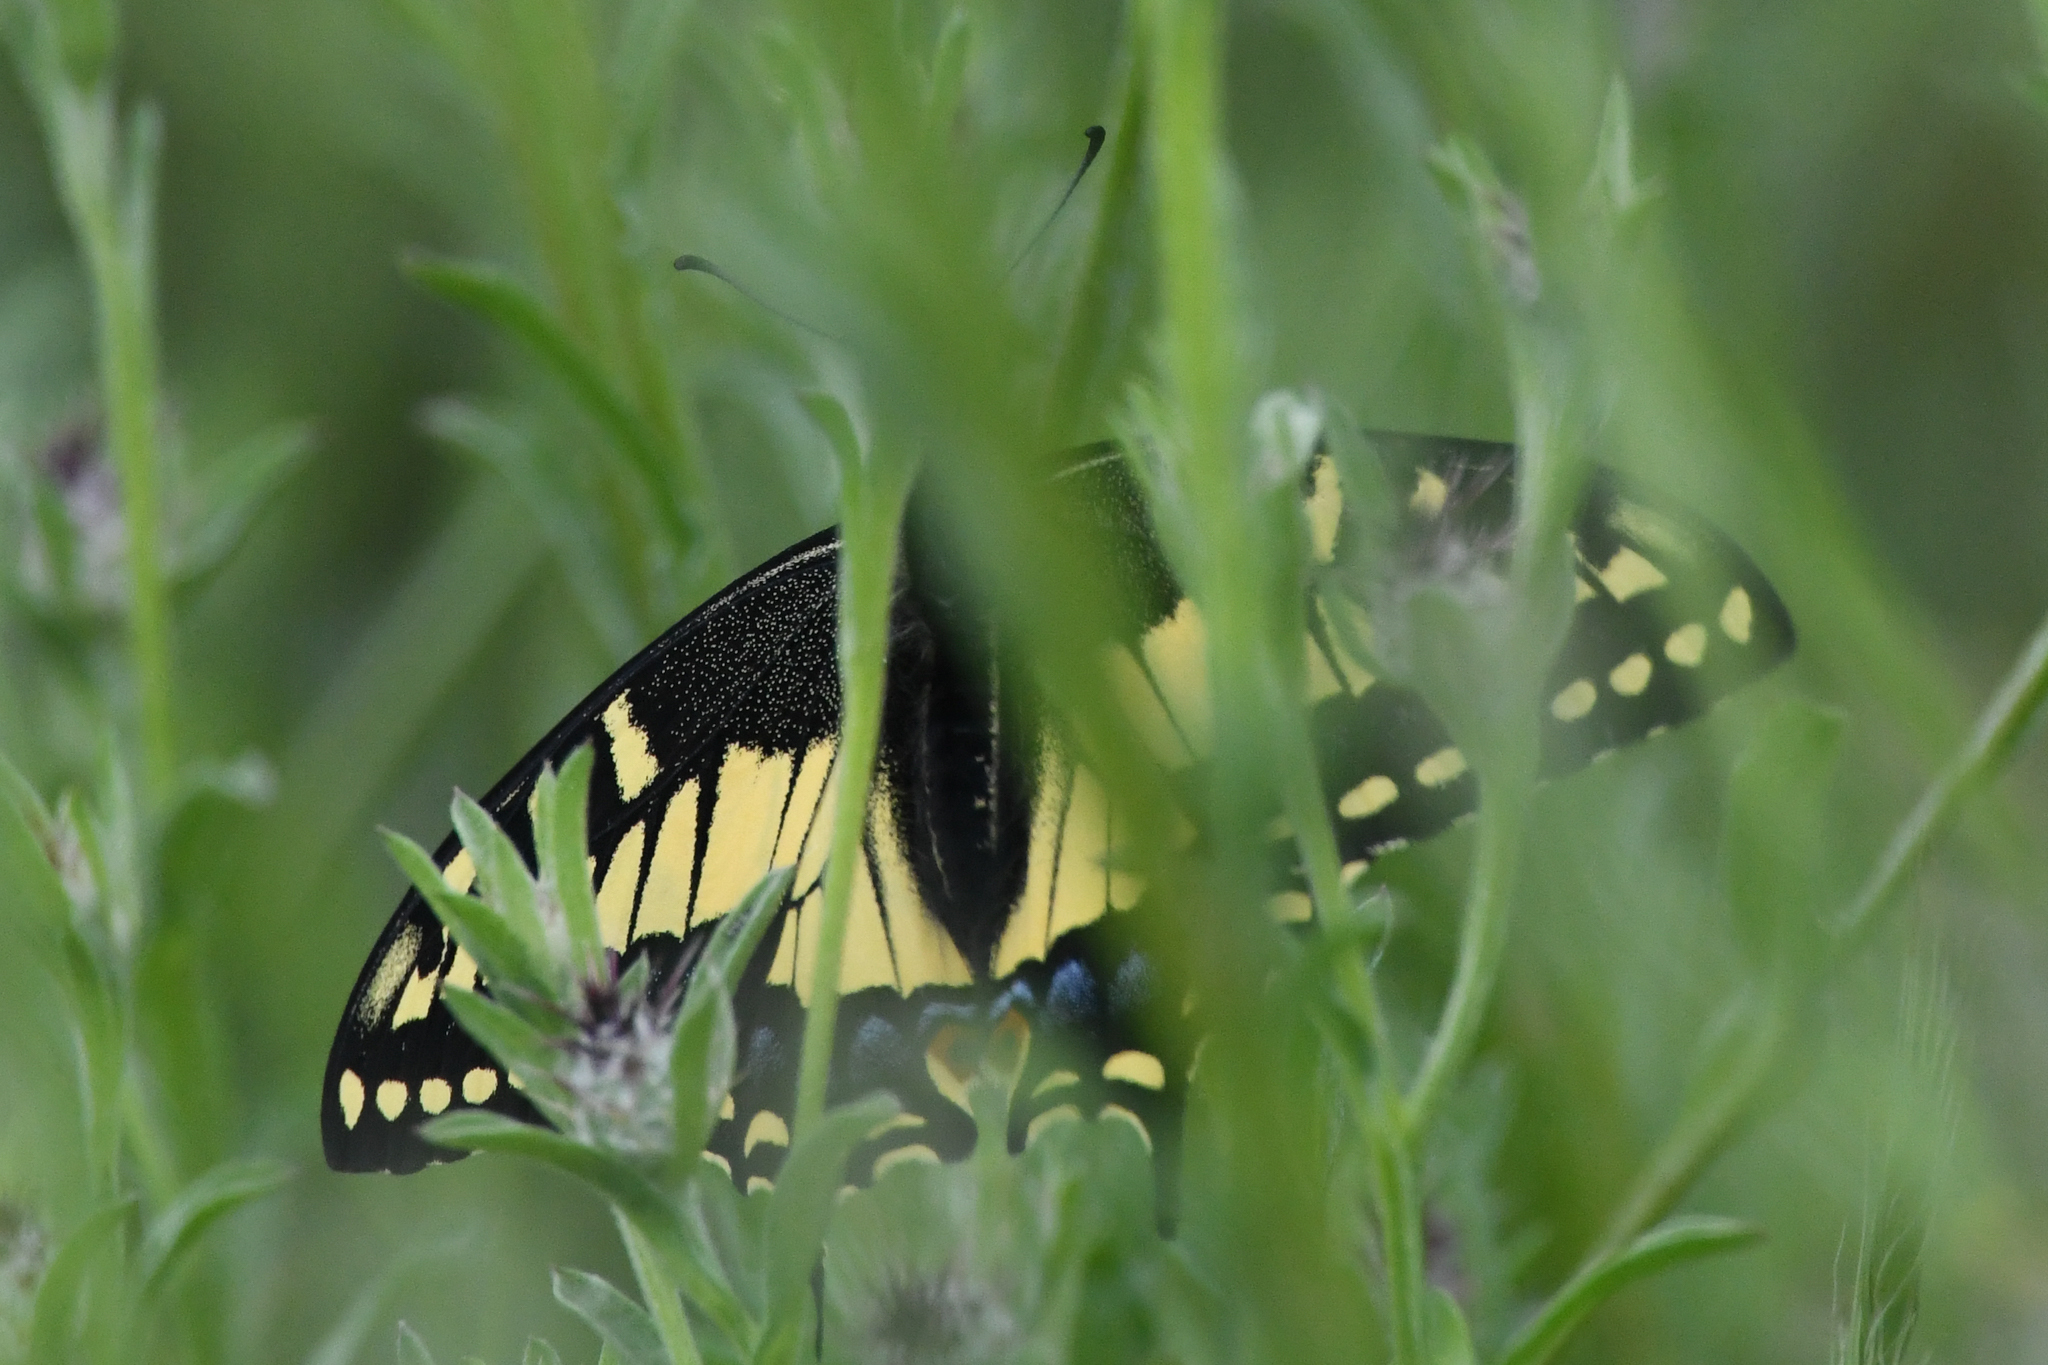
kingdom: Animalia
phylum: Arthropoda
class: Insecta
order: Lepidoptera
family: Papilionidae
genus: Papilio
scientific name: Papilio zelicaon
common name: Anise swallowtail
